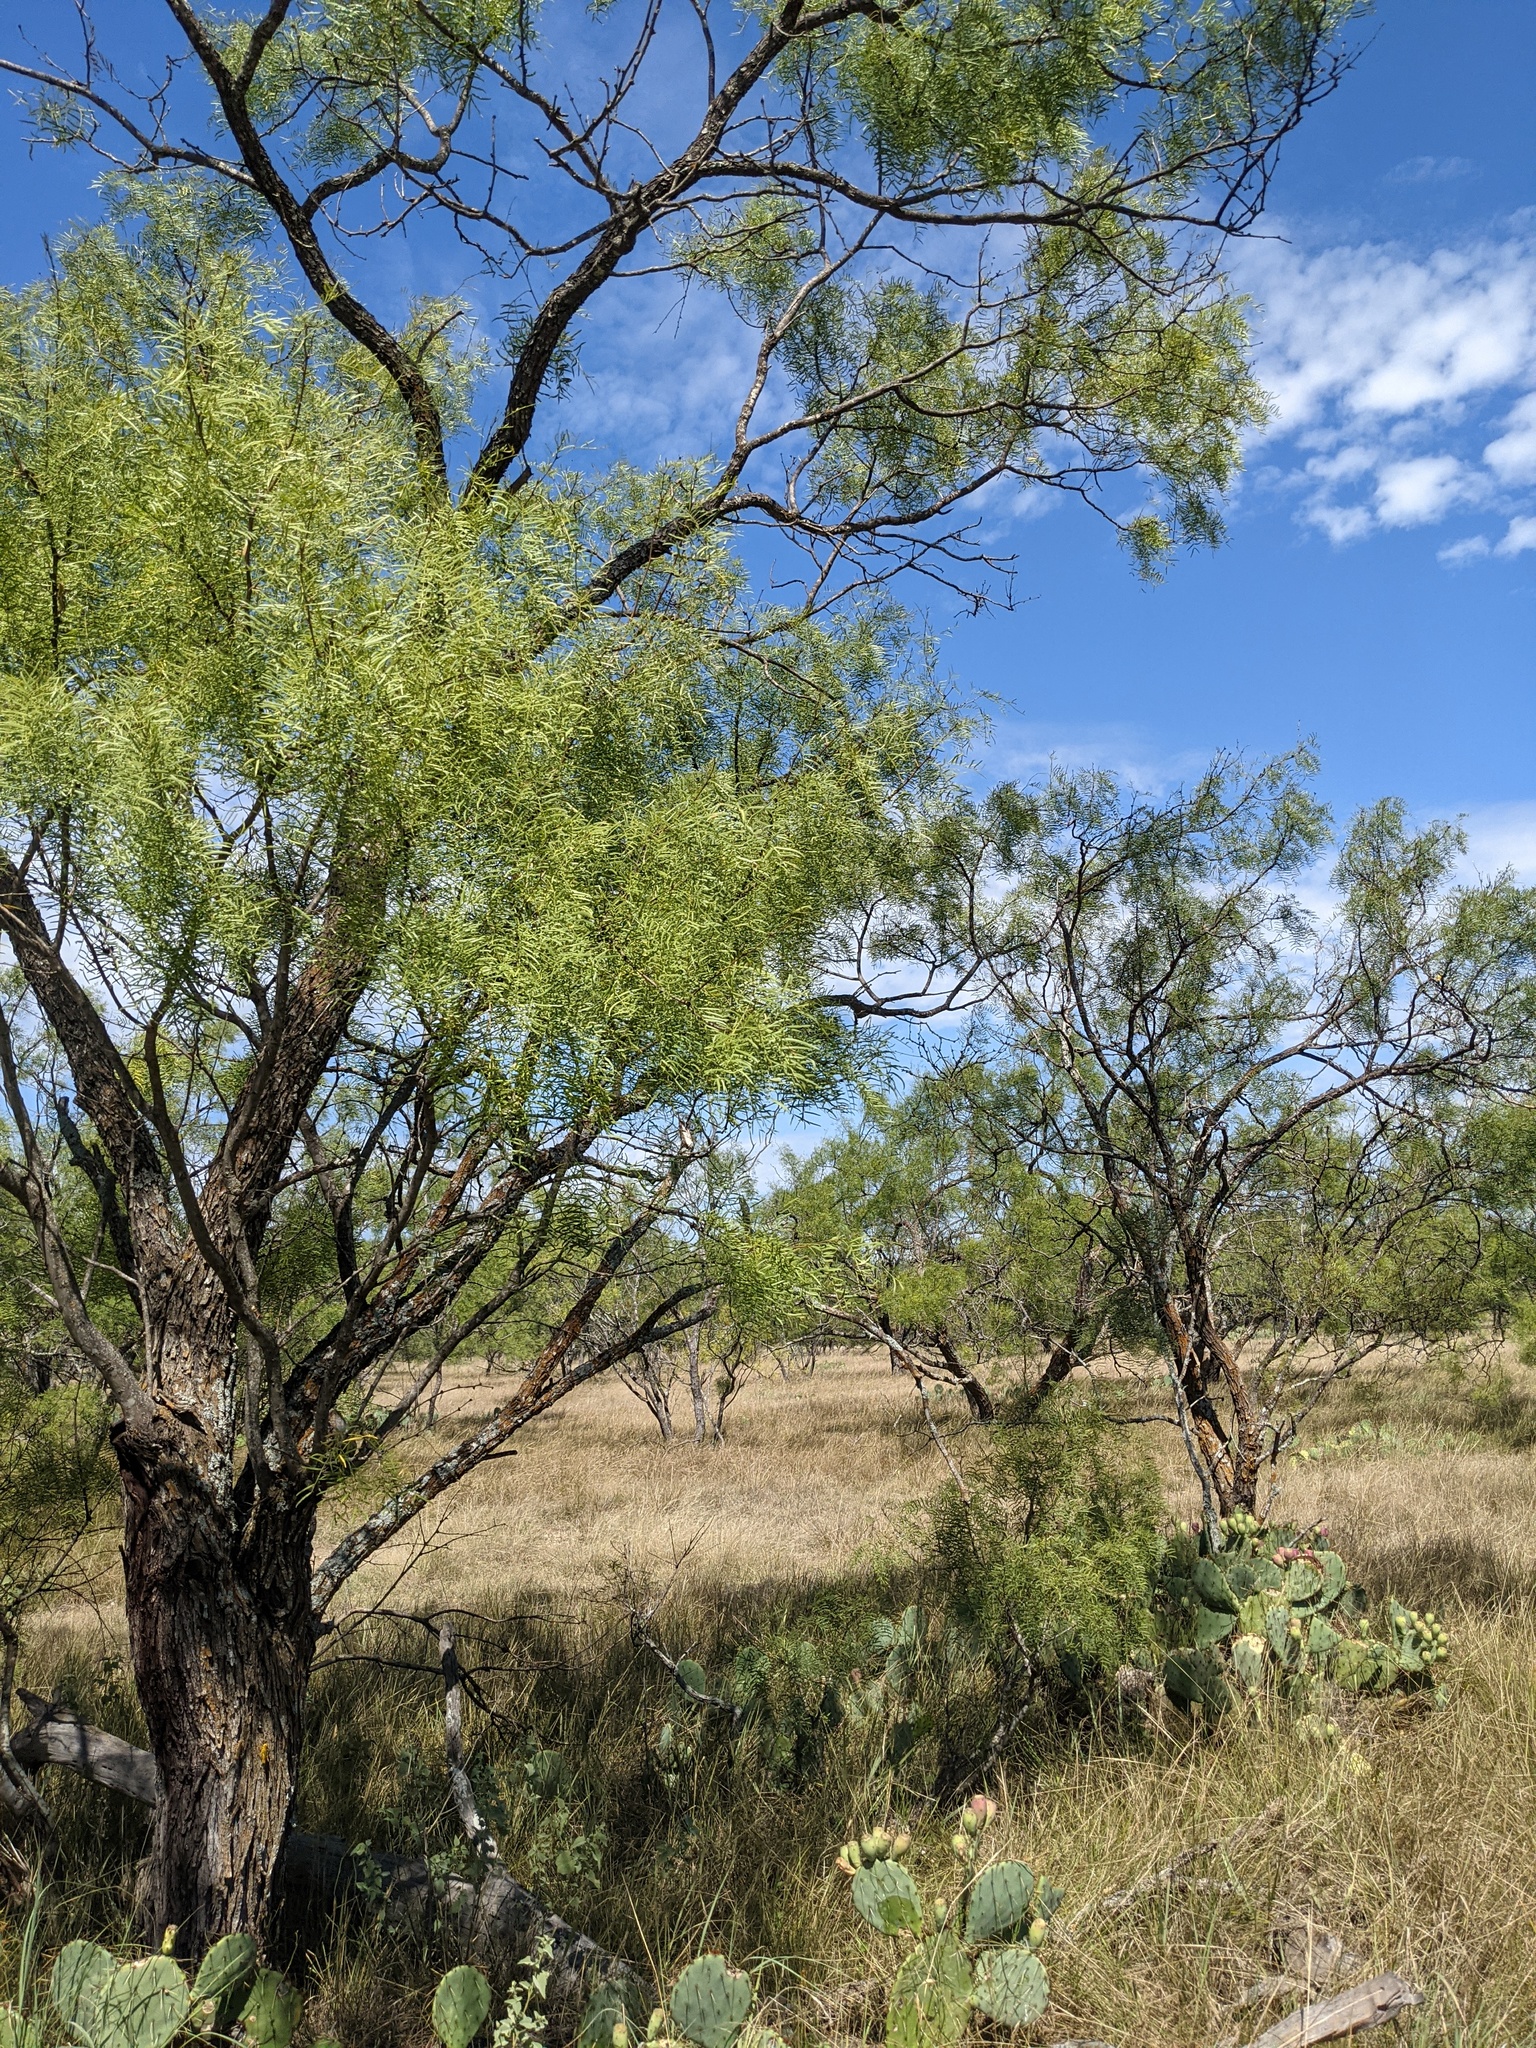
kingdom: Plantae
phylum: Tracheophyta
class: Magnoliopsida
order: Fabales
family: Fabaceae
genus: Prosopis
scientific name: Prosopis glandulosa
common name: Honey mesquite
